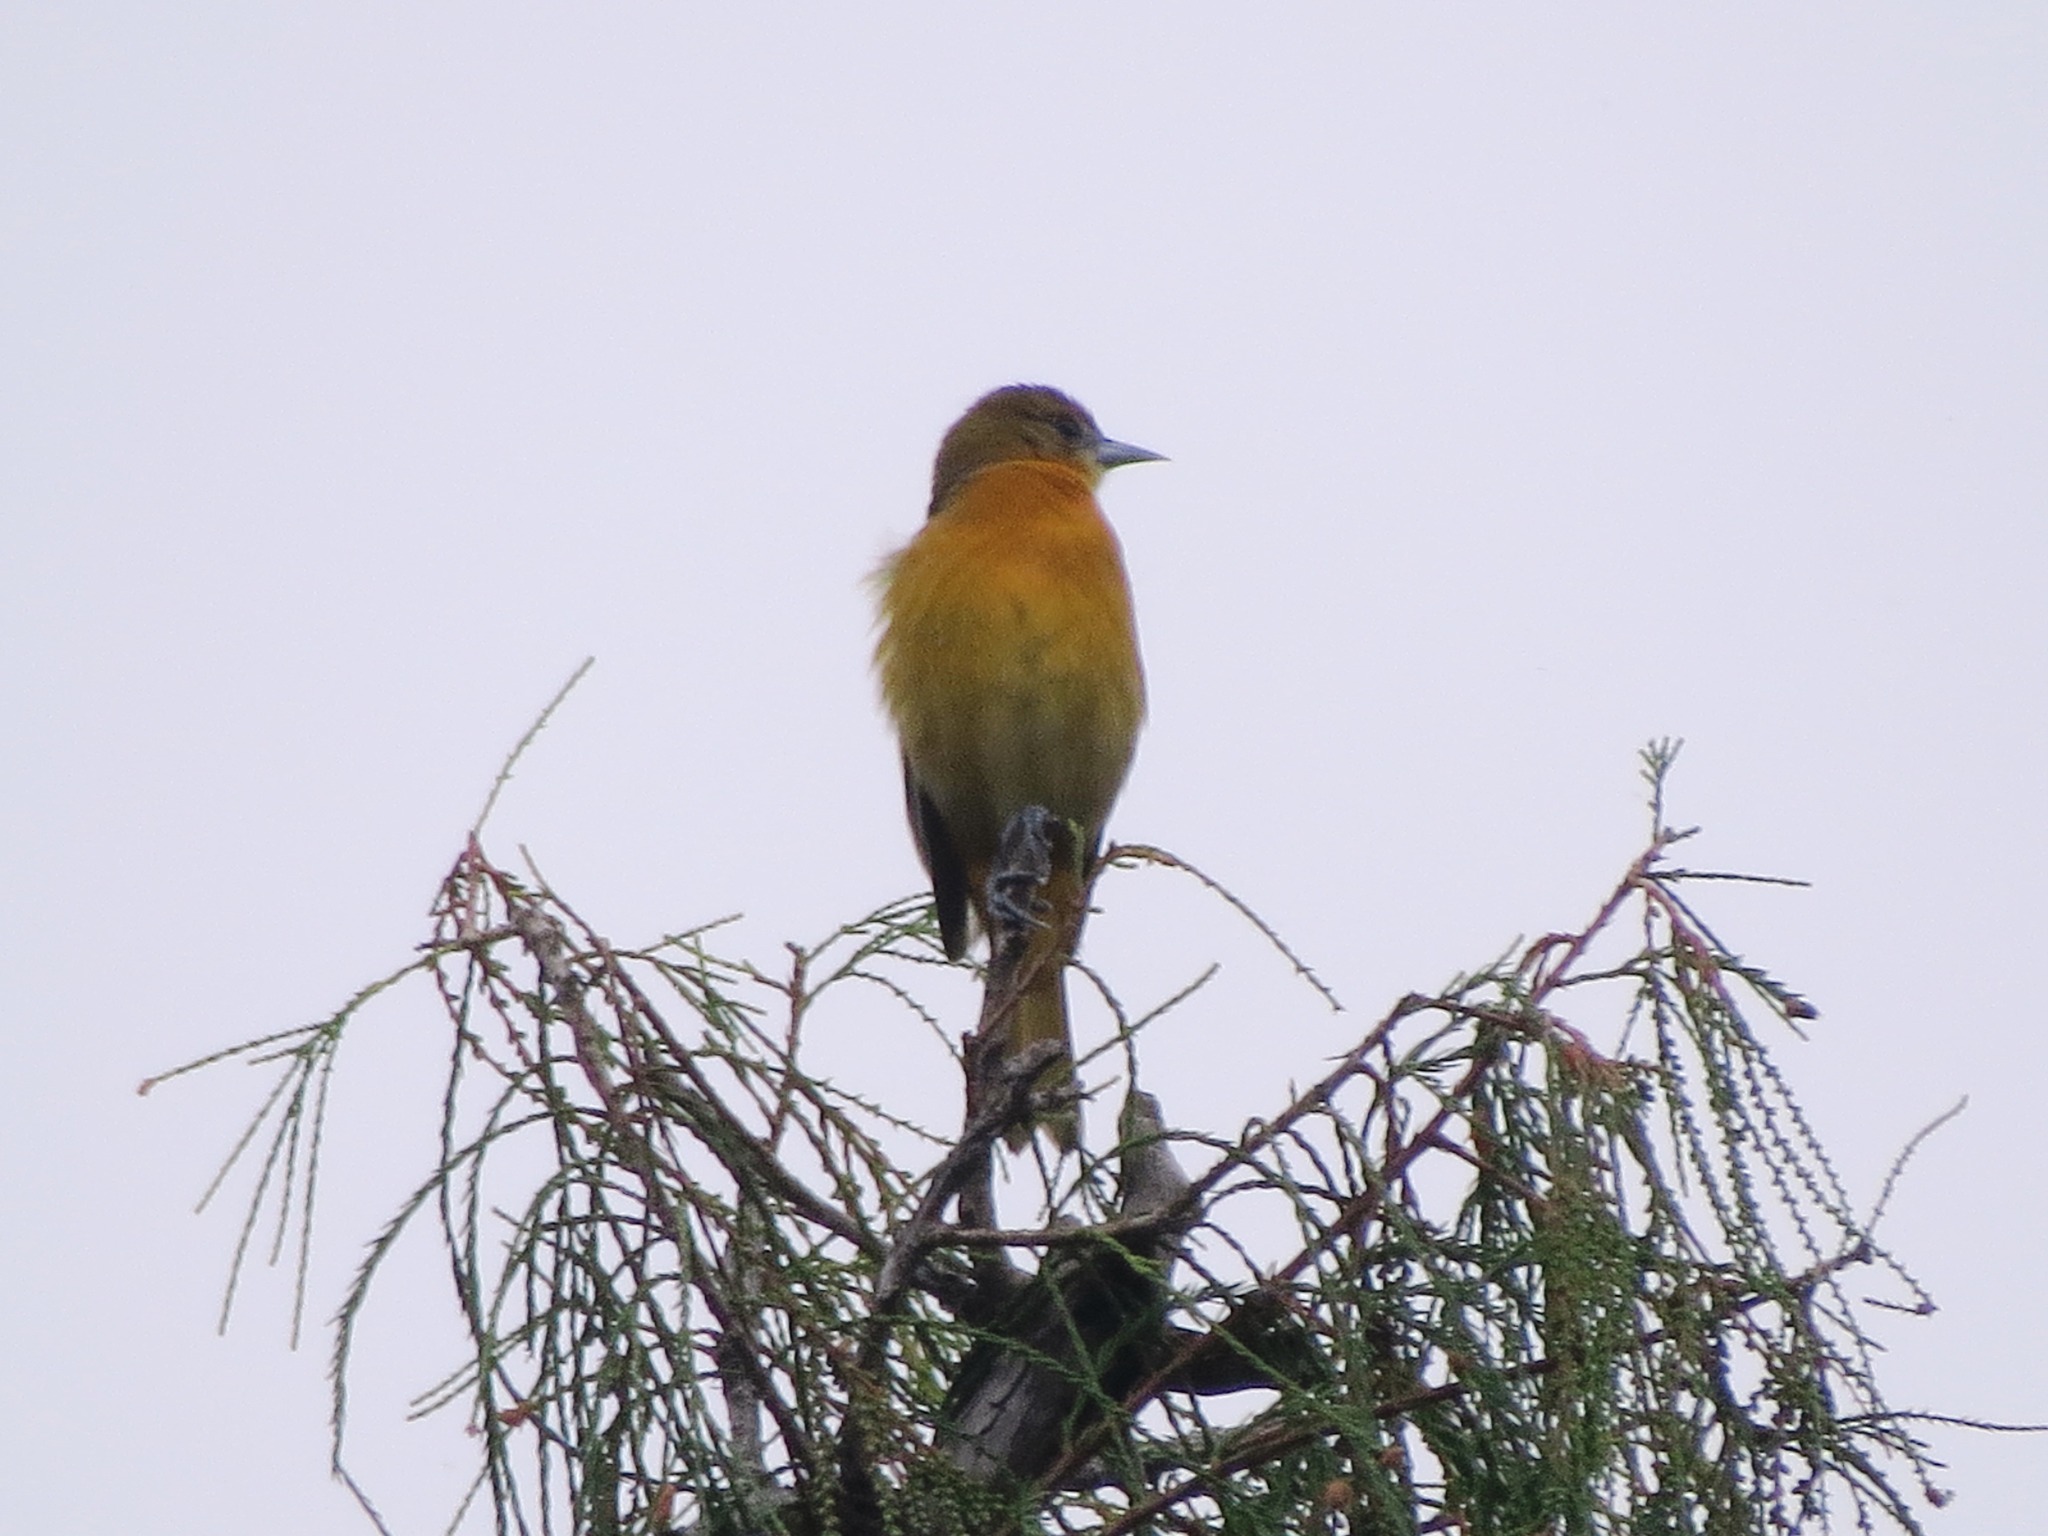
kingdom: Animalia
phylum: Chordata
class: Aves
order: Passeriformes
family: Icteridae
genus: Icterus
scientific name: Icterus galbula
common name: Baltimore oriole
